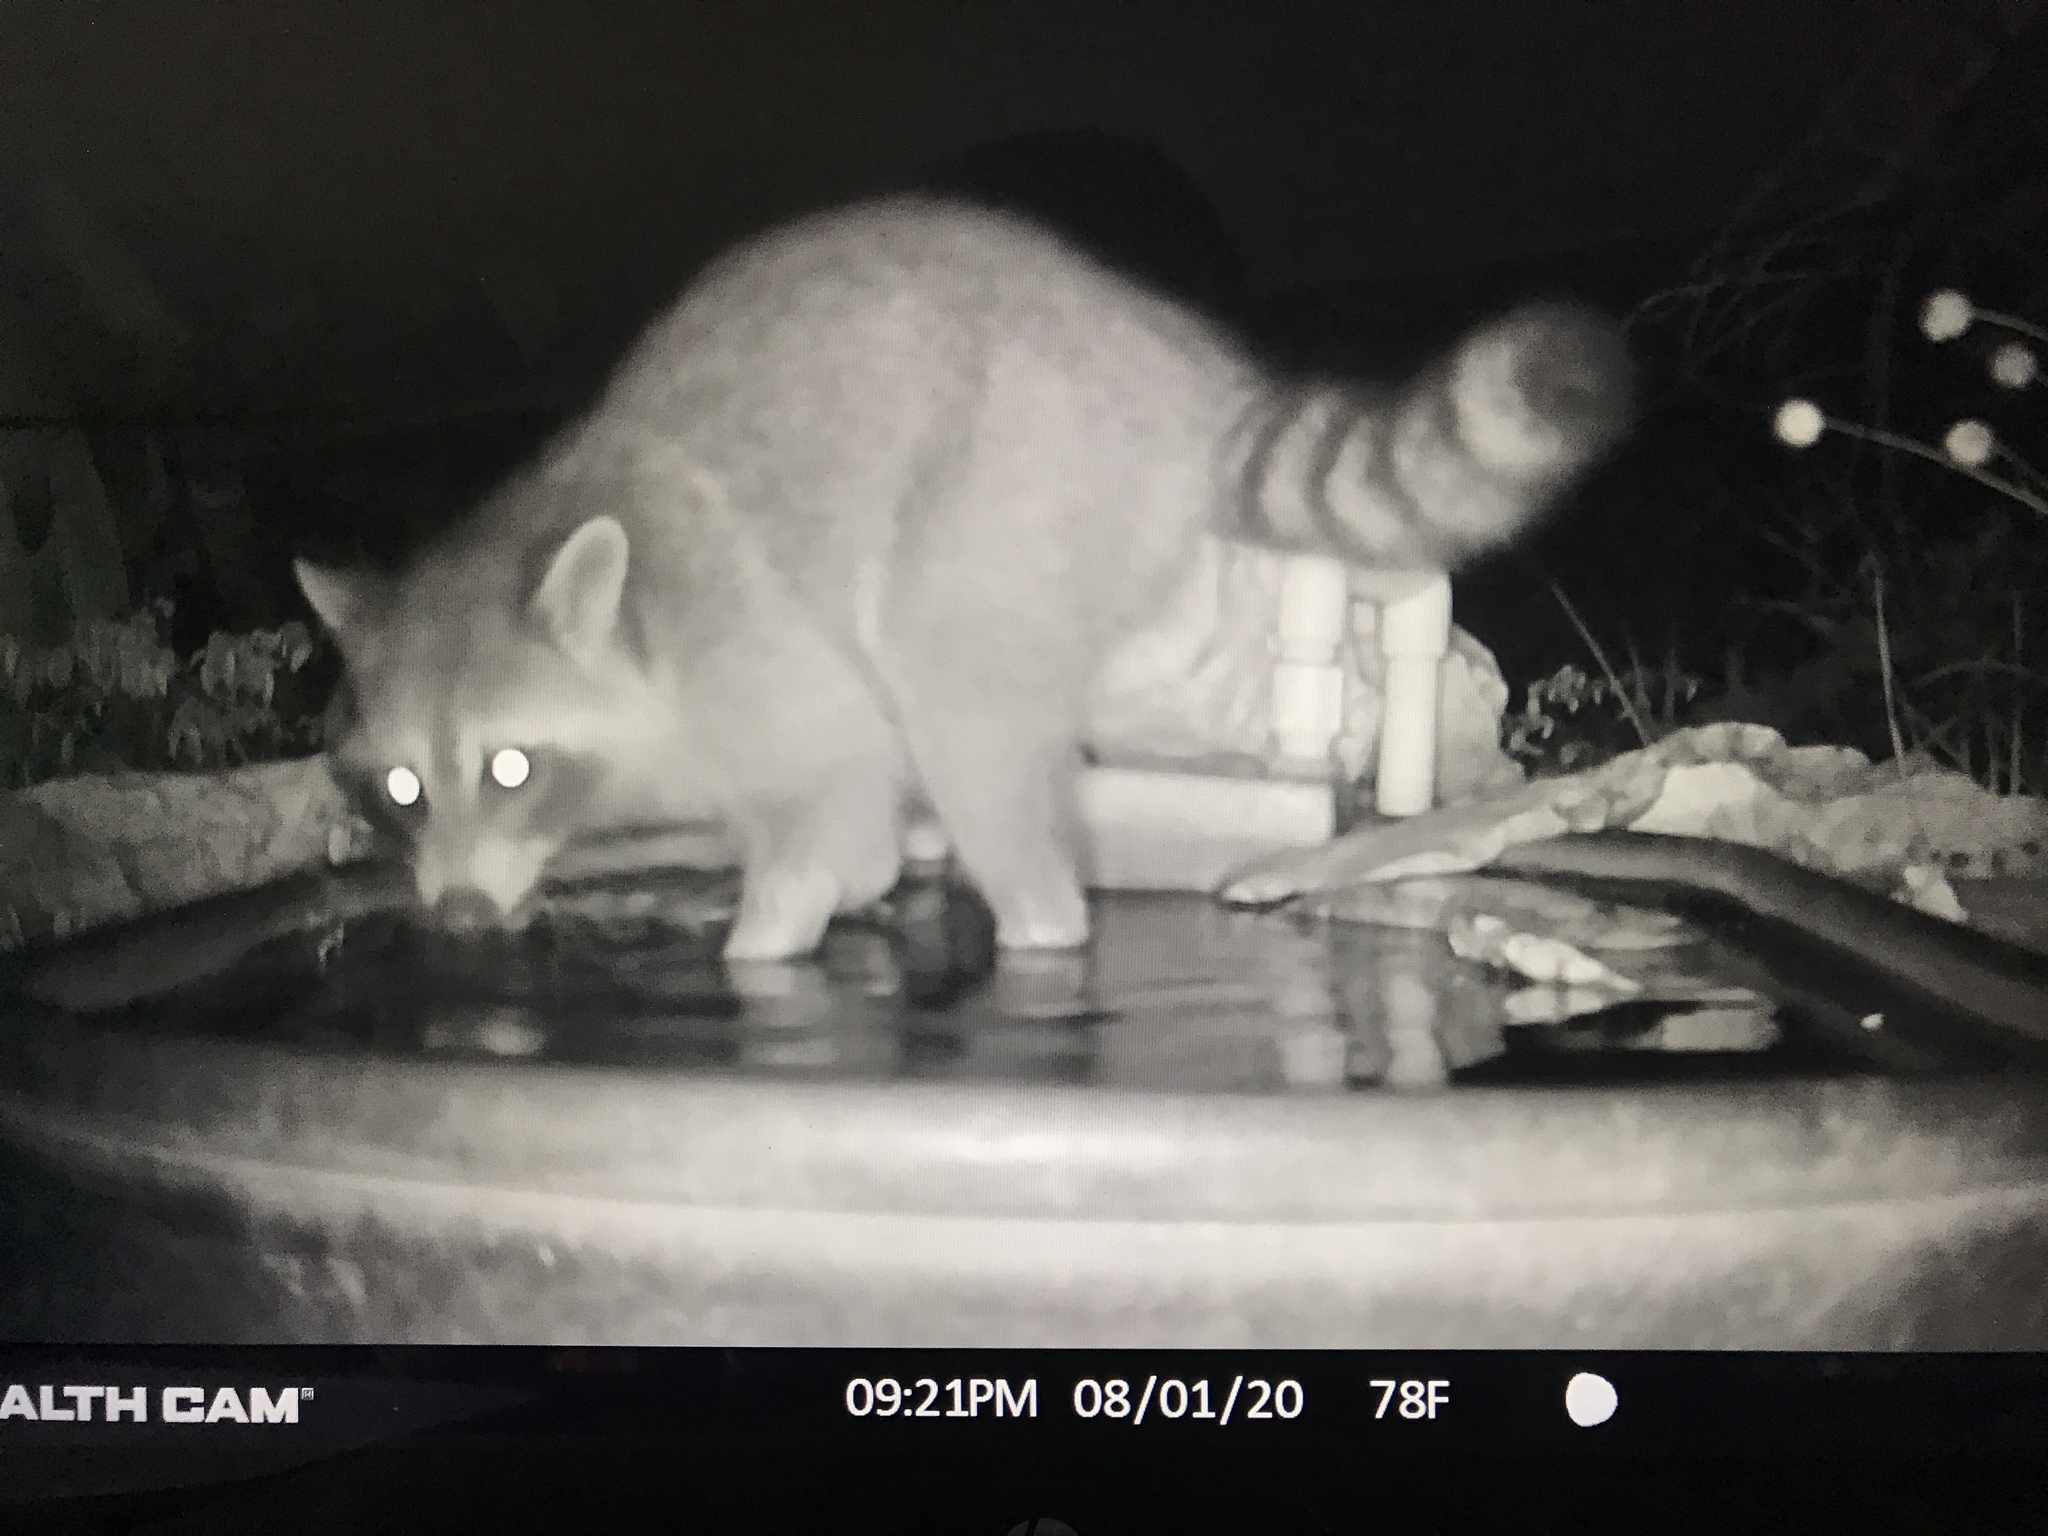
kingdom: Animalia
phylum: Chordata
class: Mammalia
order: Carnivora
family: Procyonidae
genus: Procyon
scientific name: Procyon lotor
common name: Raccoon
